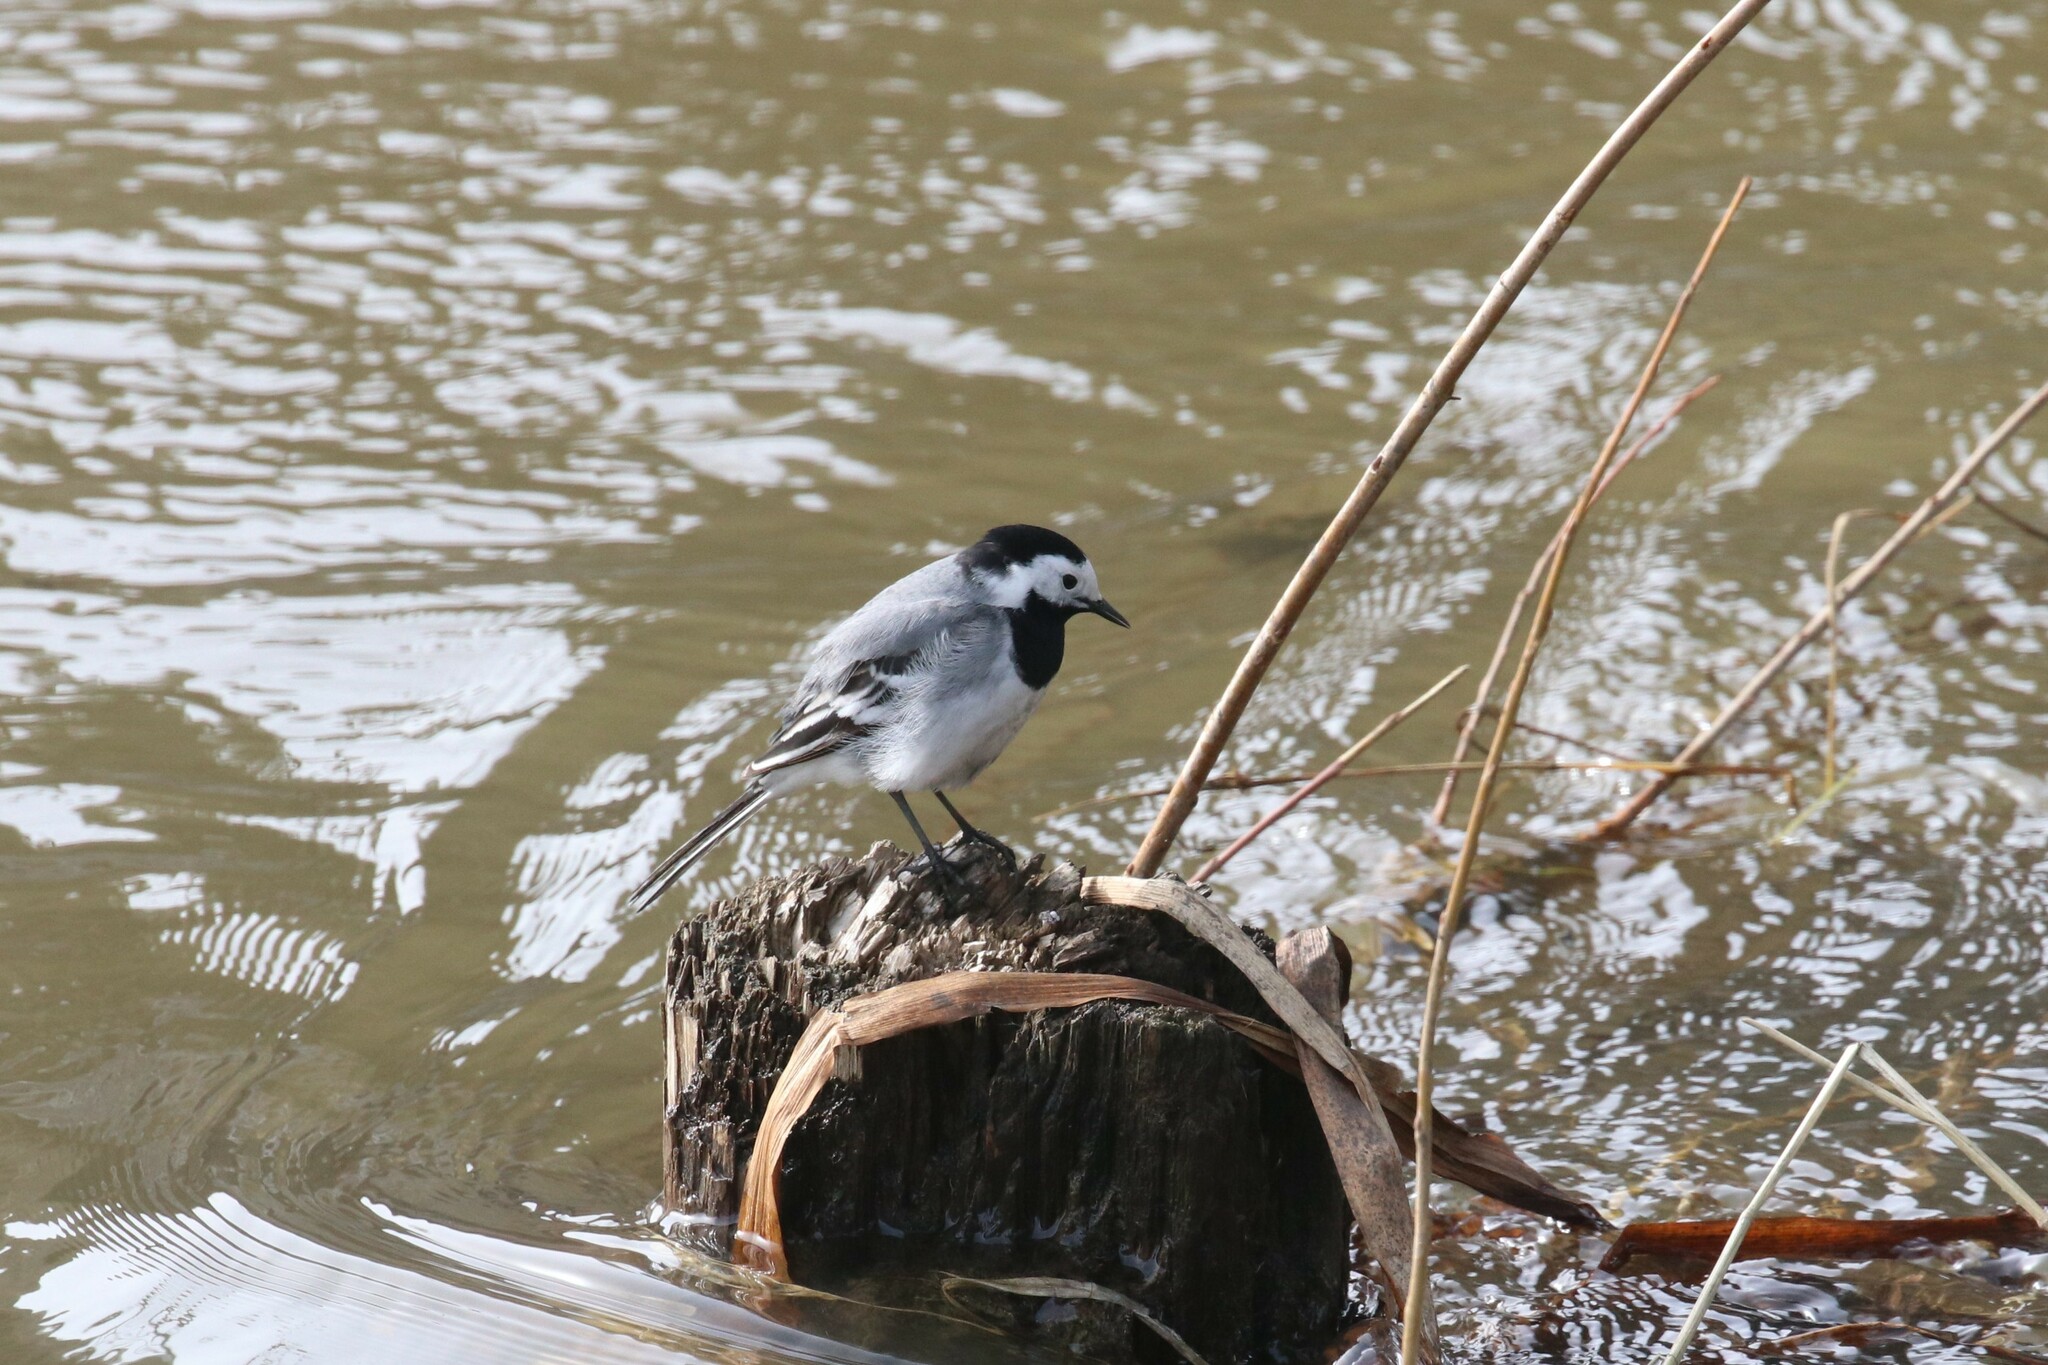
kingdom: Animalia
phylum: Chordata
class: Aves
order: Passeriformes
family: Motacillidae
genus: Motacilla
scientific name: Motacilla alba
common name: White wagtail
